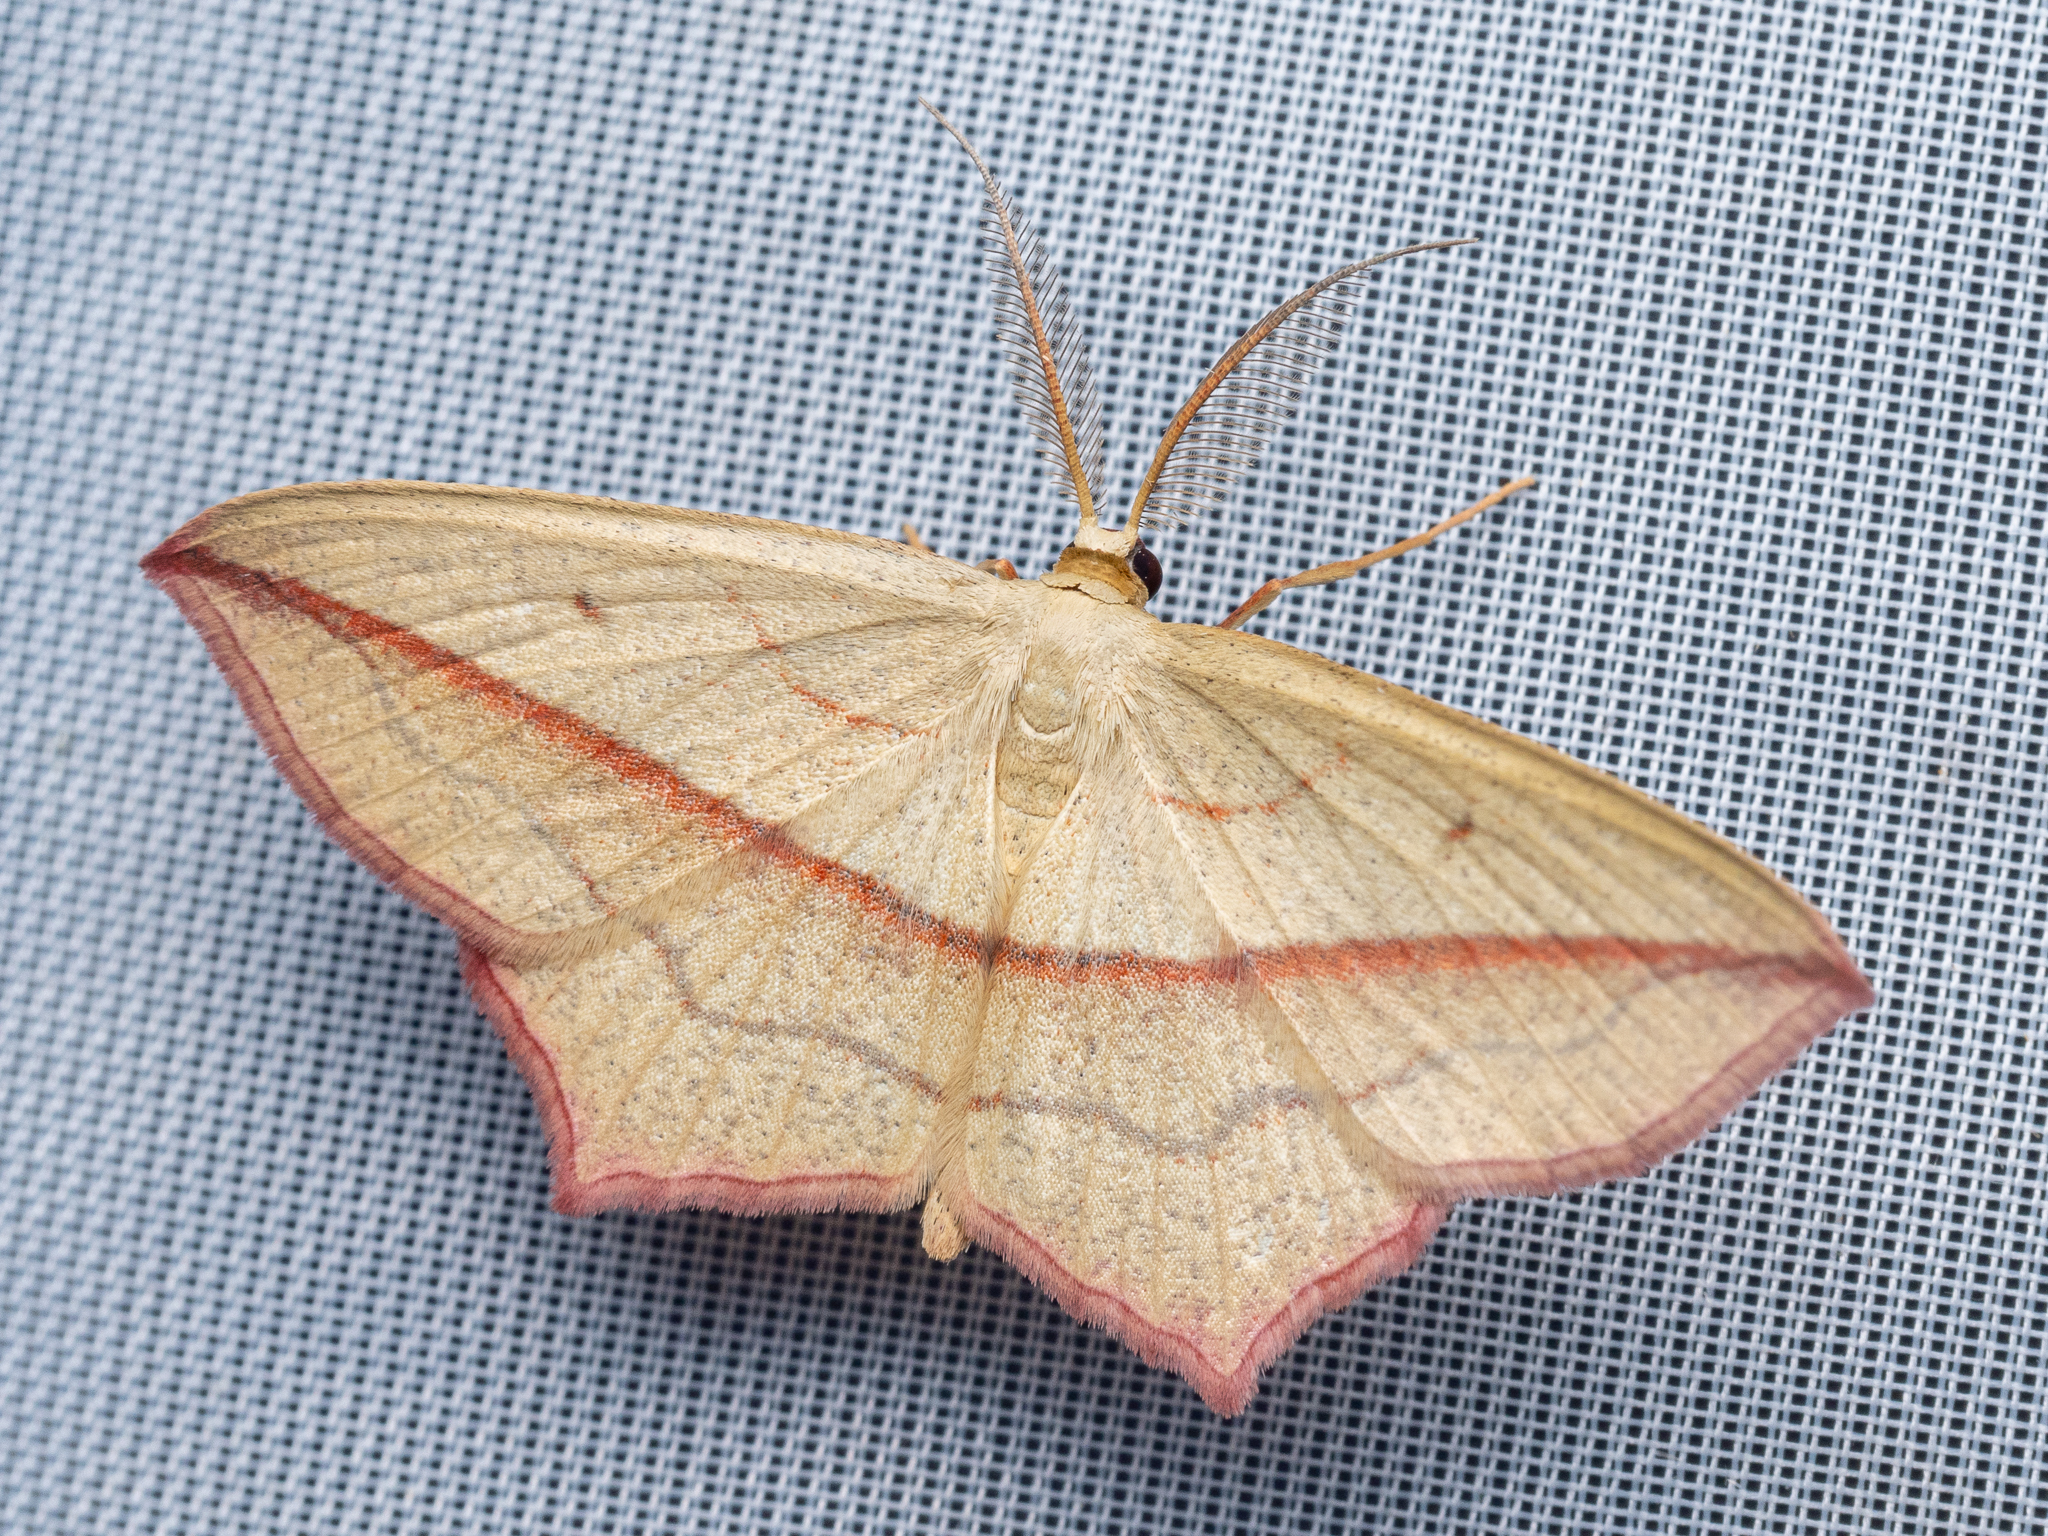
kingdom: Animalia
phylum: Arthropoda
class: Insecta
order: Lepidoptera
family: Geometridae
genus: Timandra
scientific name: Timandra comae
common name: Blood-vein
